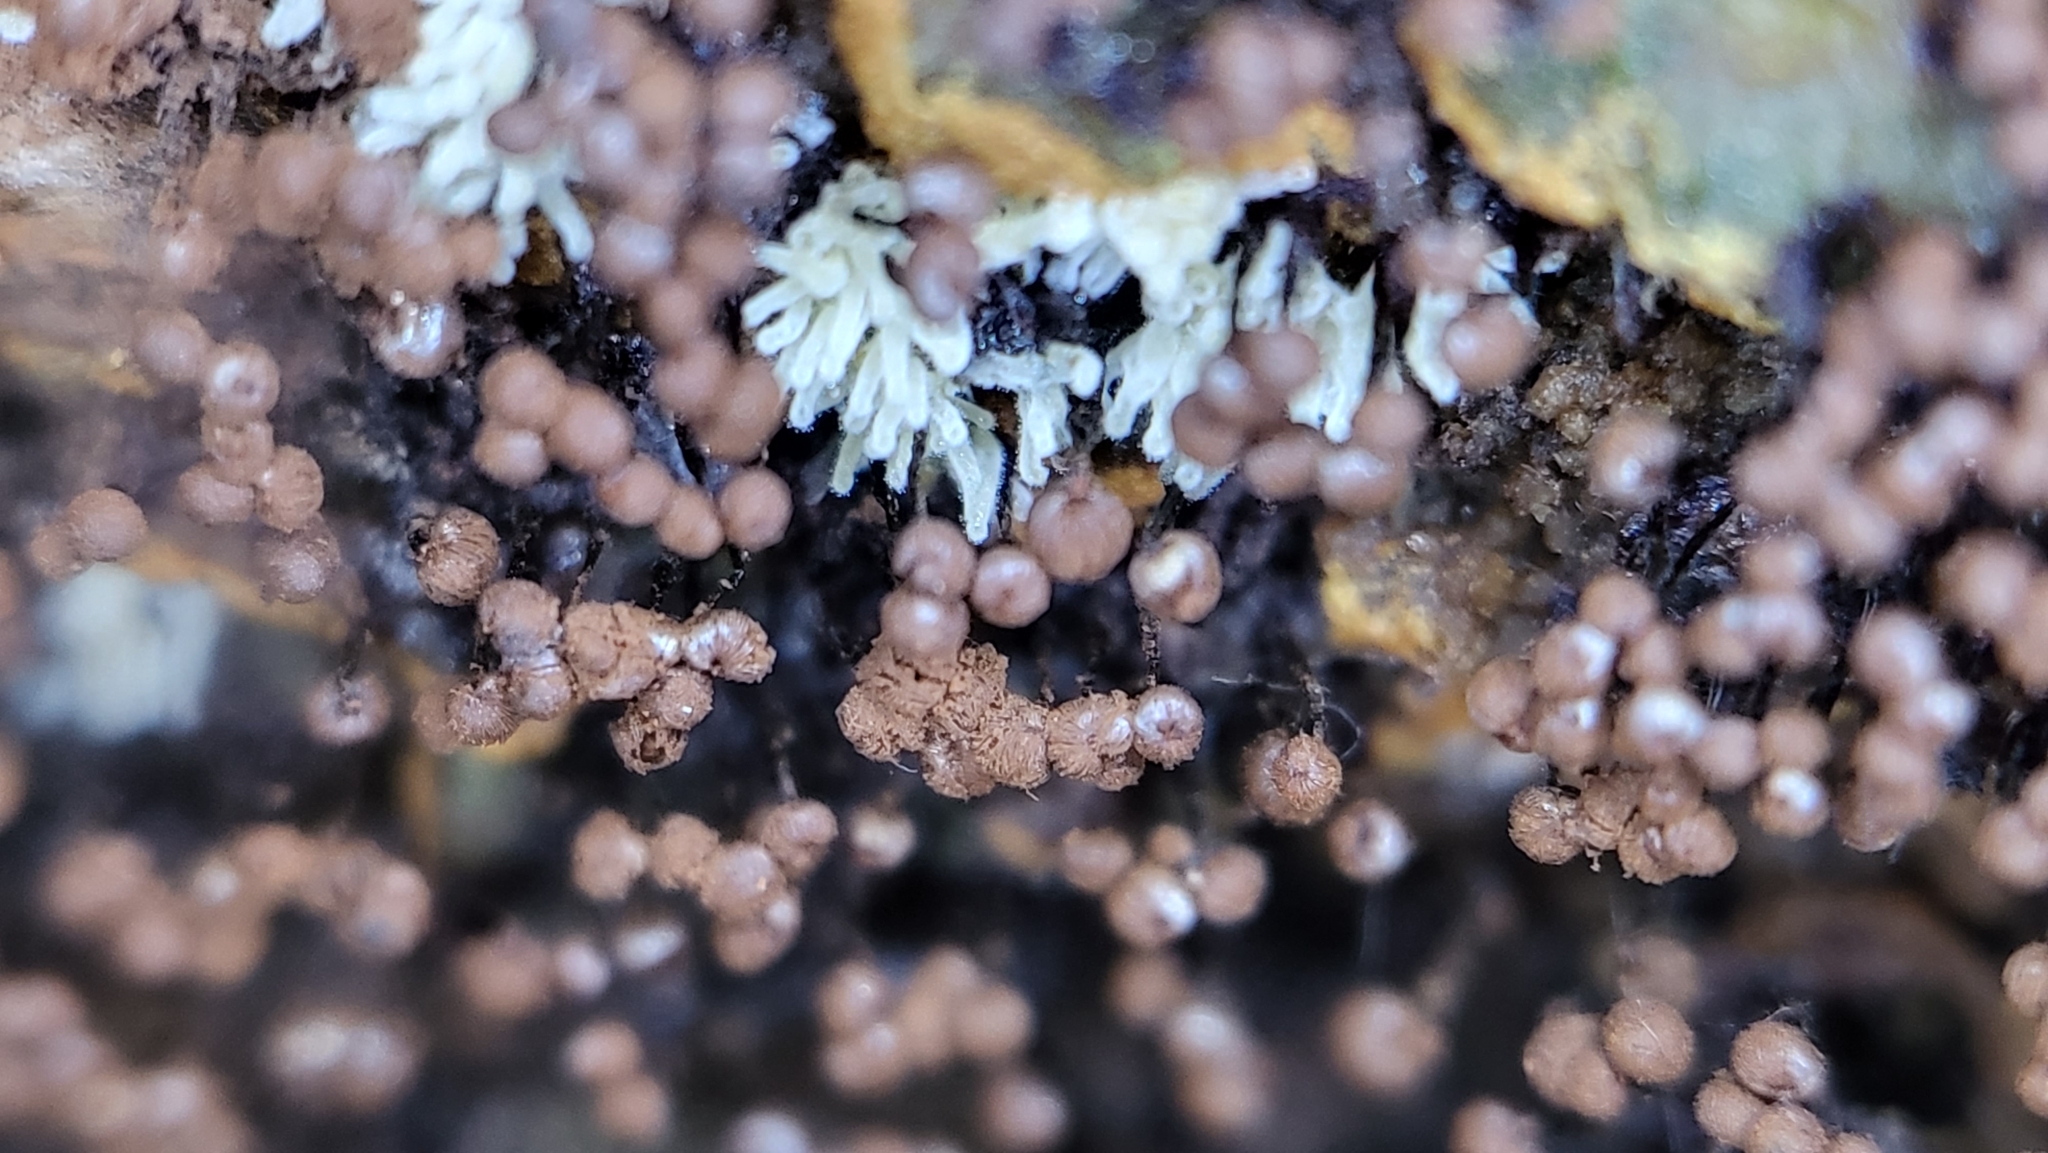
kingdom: Protozoa
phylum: Mycetozoa
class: Myxomycetes
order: Cribrariales
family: Cribrariaceae
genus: Cribraria
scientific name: Cribraria cancellata
